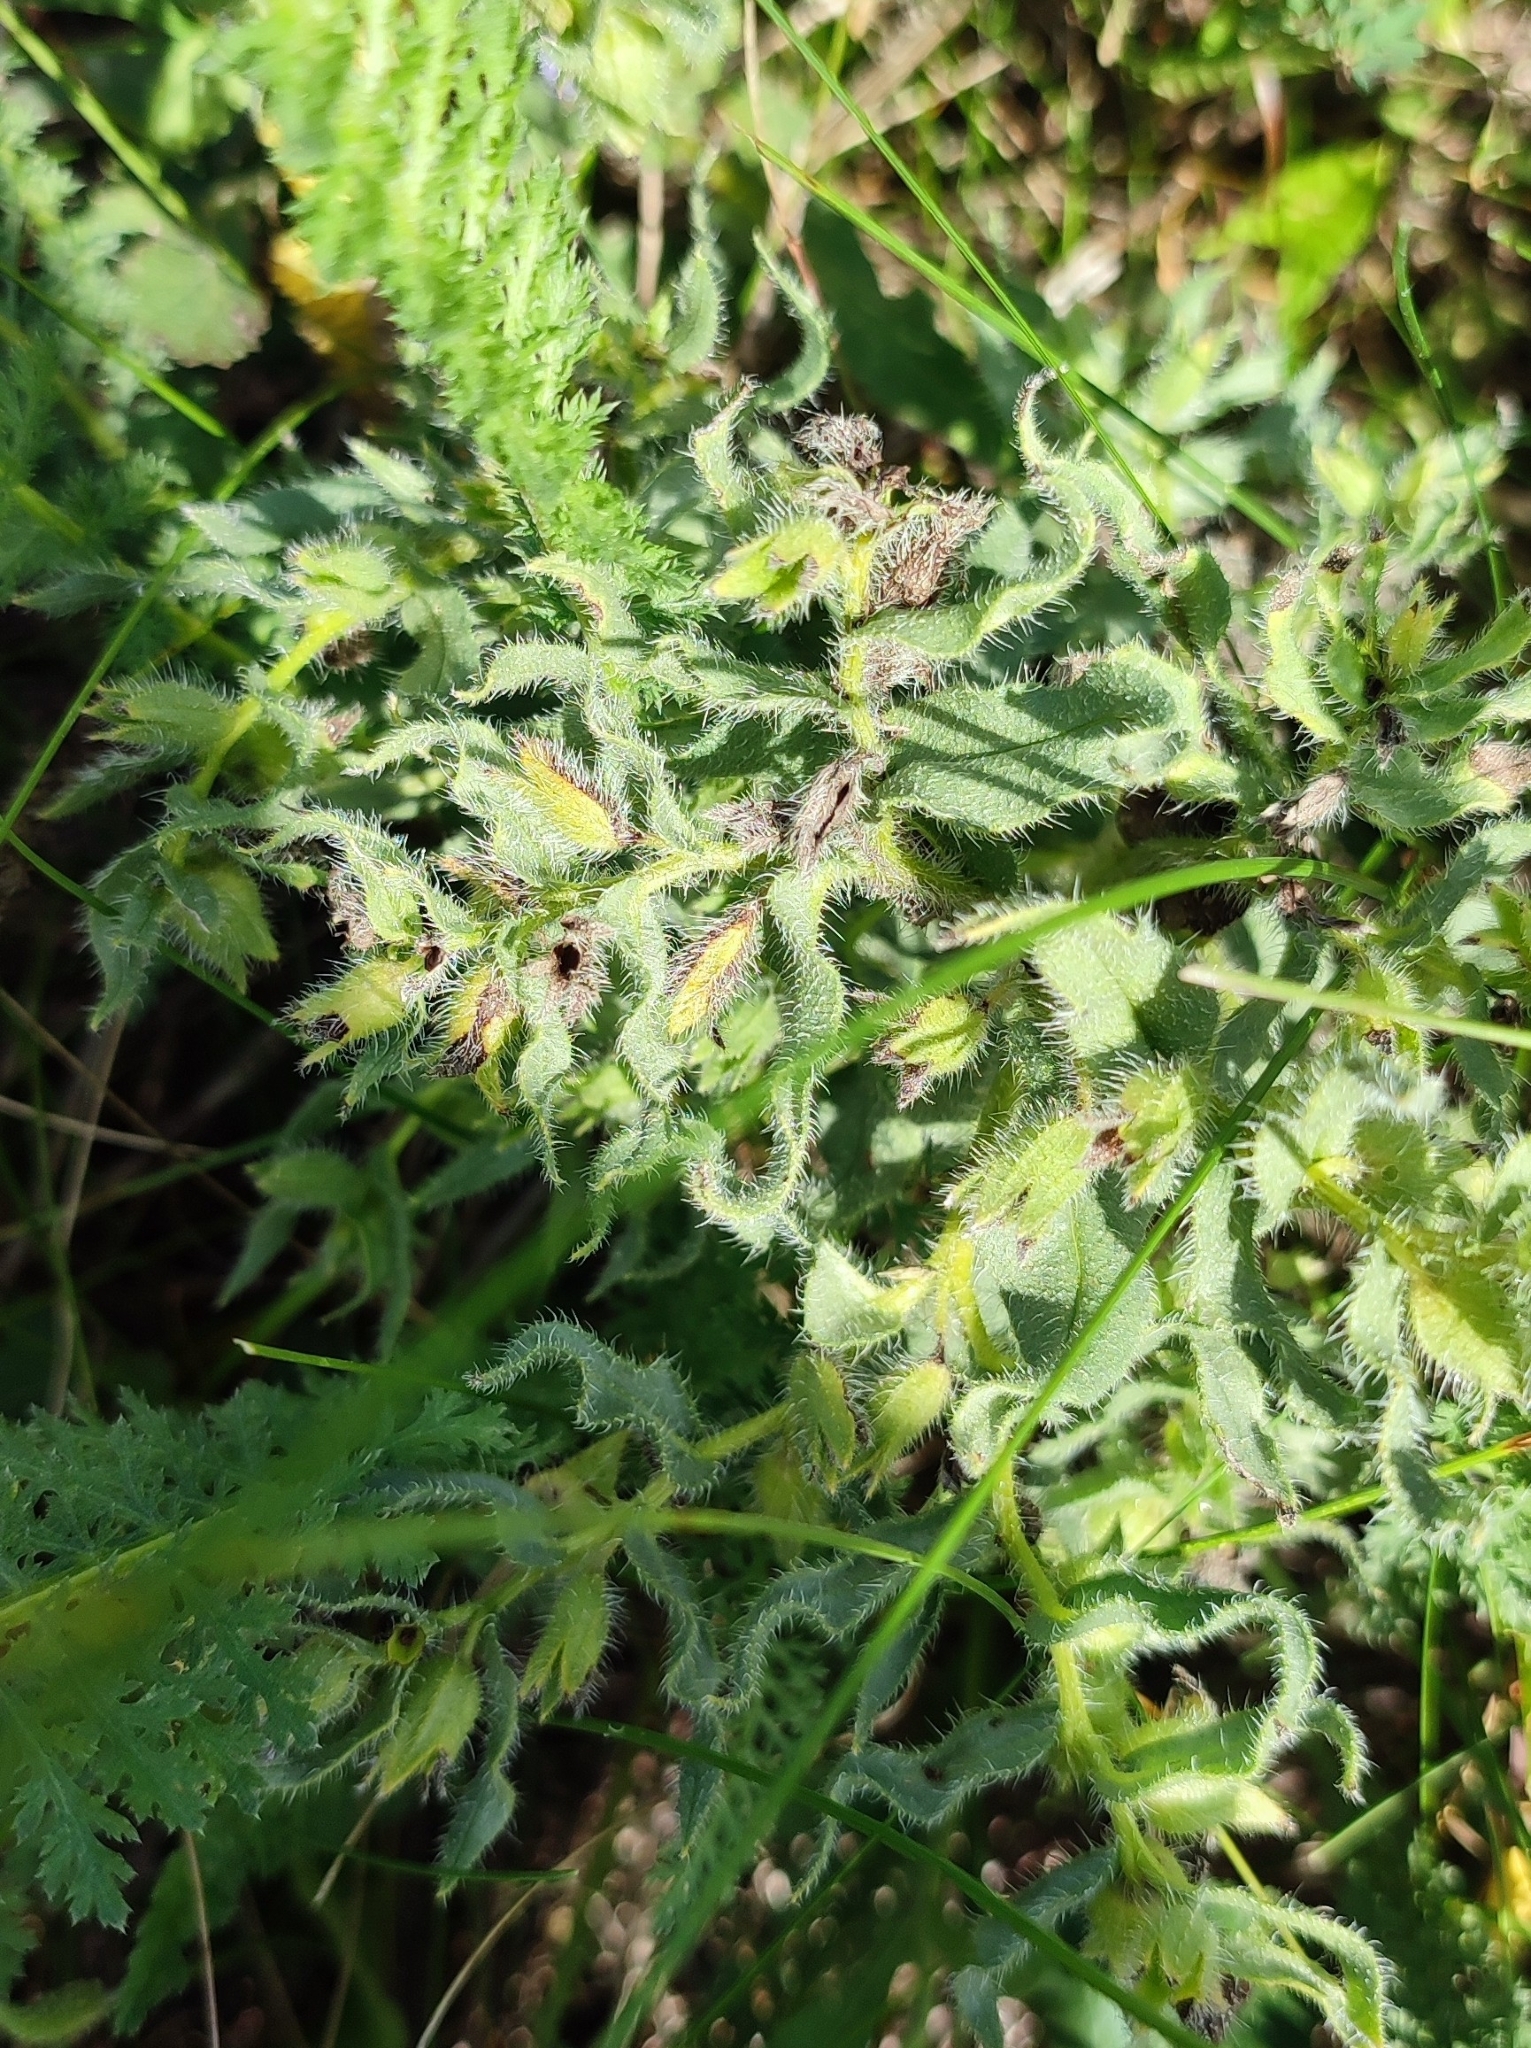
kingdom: Plantae
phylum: Tracheophyta
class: Magnoliopsida
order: Boraginales
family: Boraginaceae
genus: Nonea
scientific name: Nonea pulla
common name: Brown nonea
